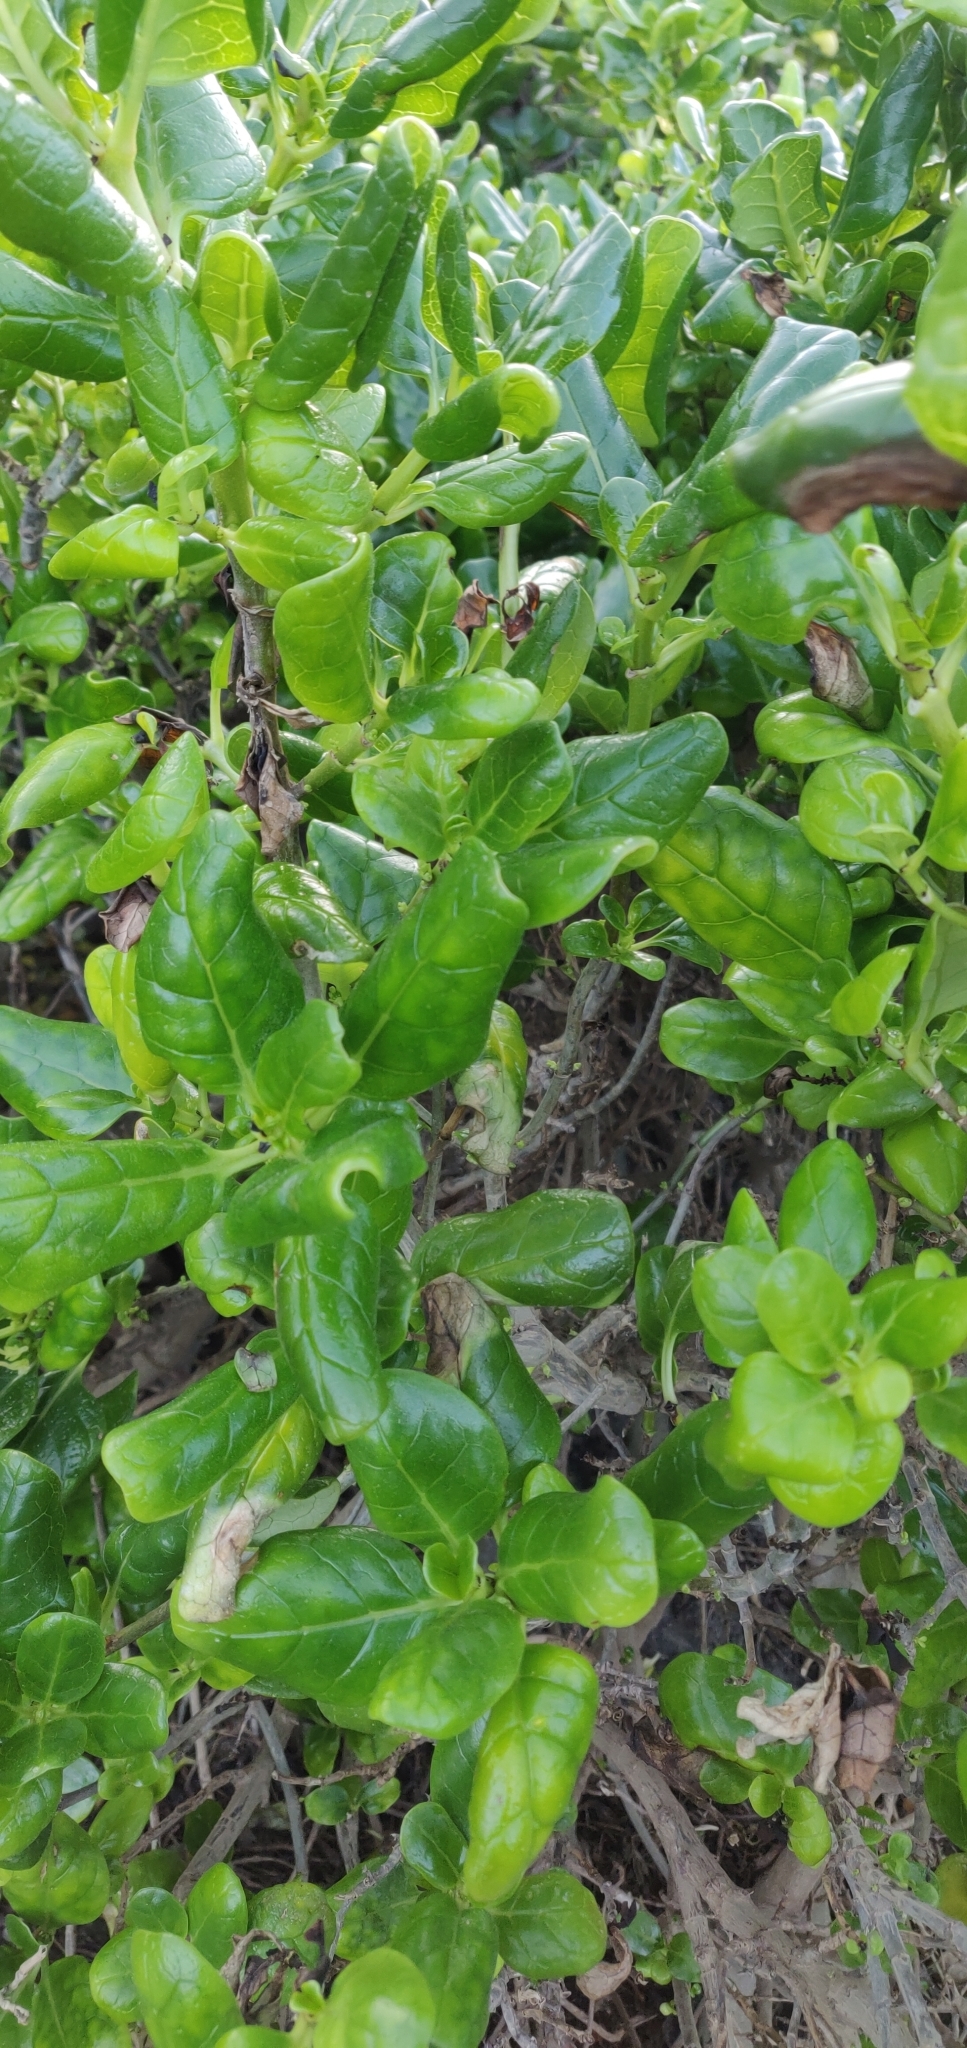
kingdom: Plantae
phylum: Tracheophyta
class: Magnoliopsida
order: Gentianales
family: Rubiaceae
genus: Coprosma
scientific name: Coprosma repens
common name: Tree bedstraw
